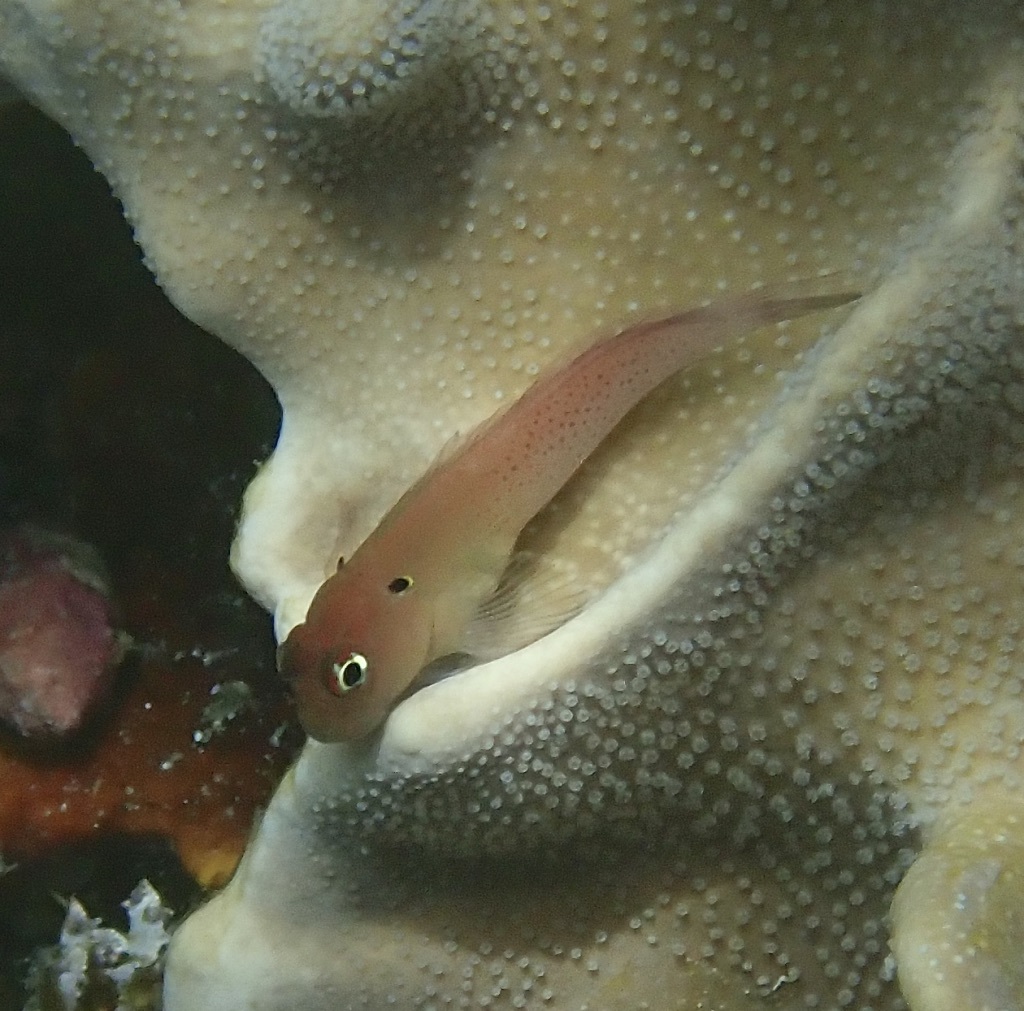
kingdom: Animalia
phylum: Chordata
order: Perciformes
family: Blenniidae
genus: Cirripectes
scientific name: Cirripectes auritus
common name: Eared blenny
